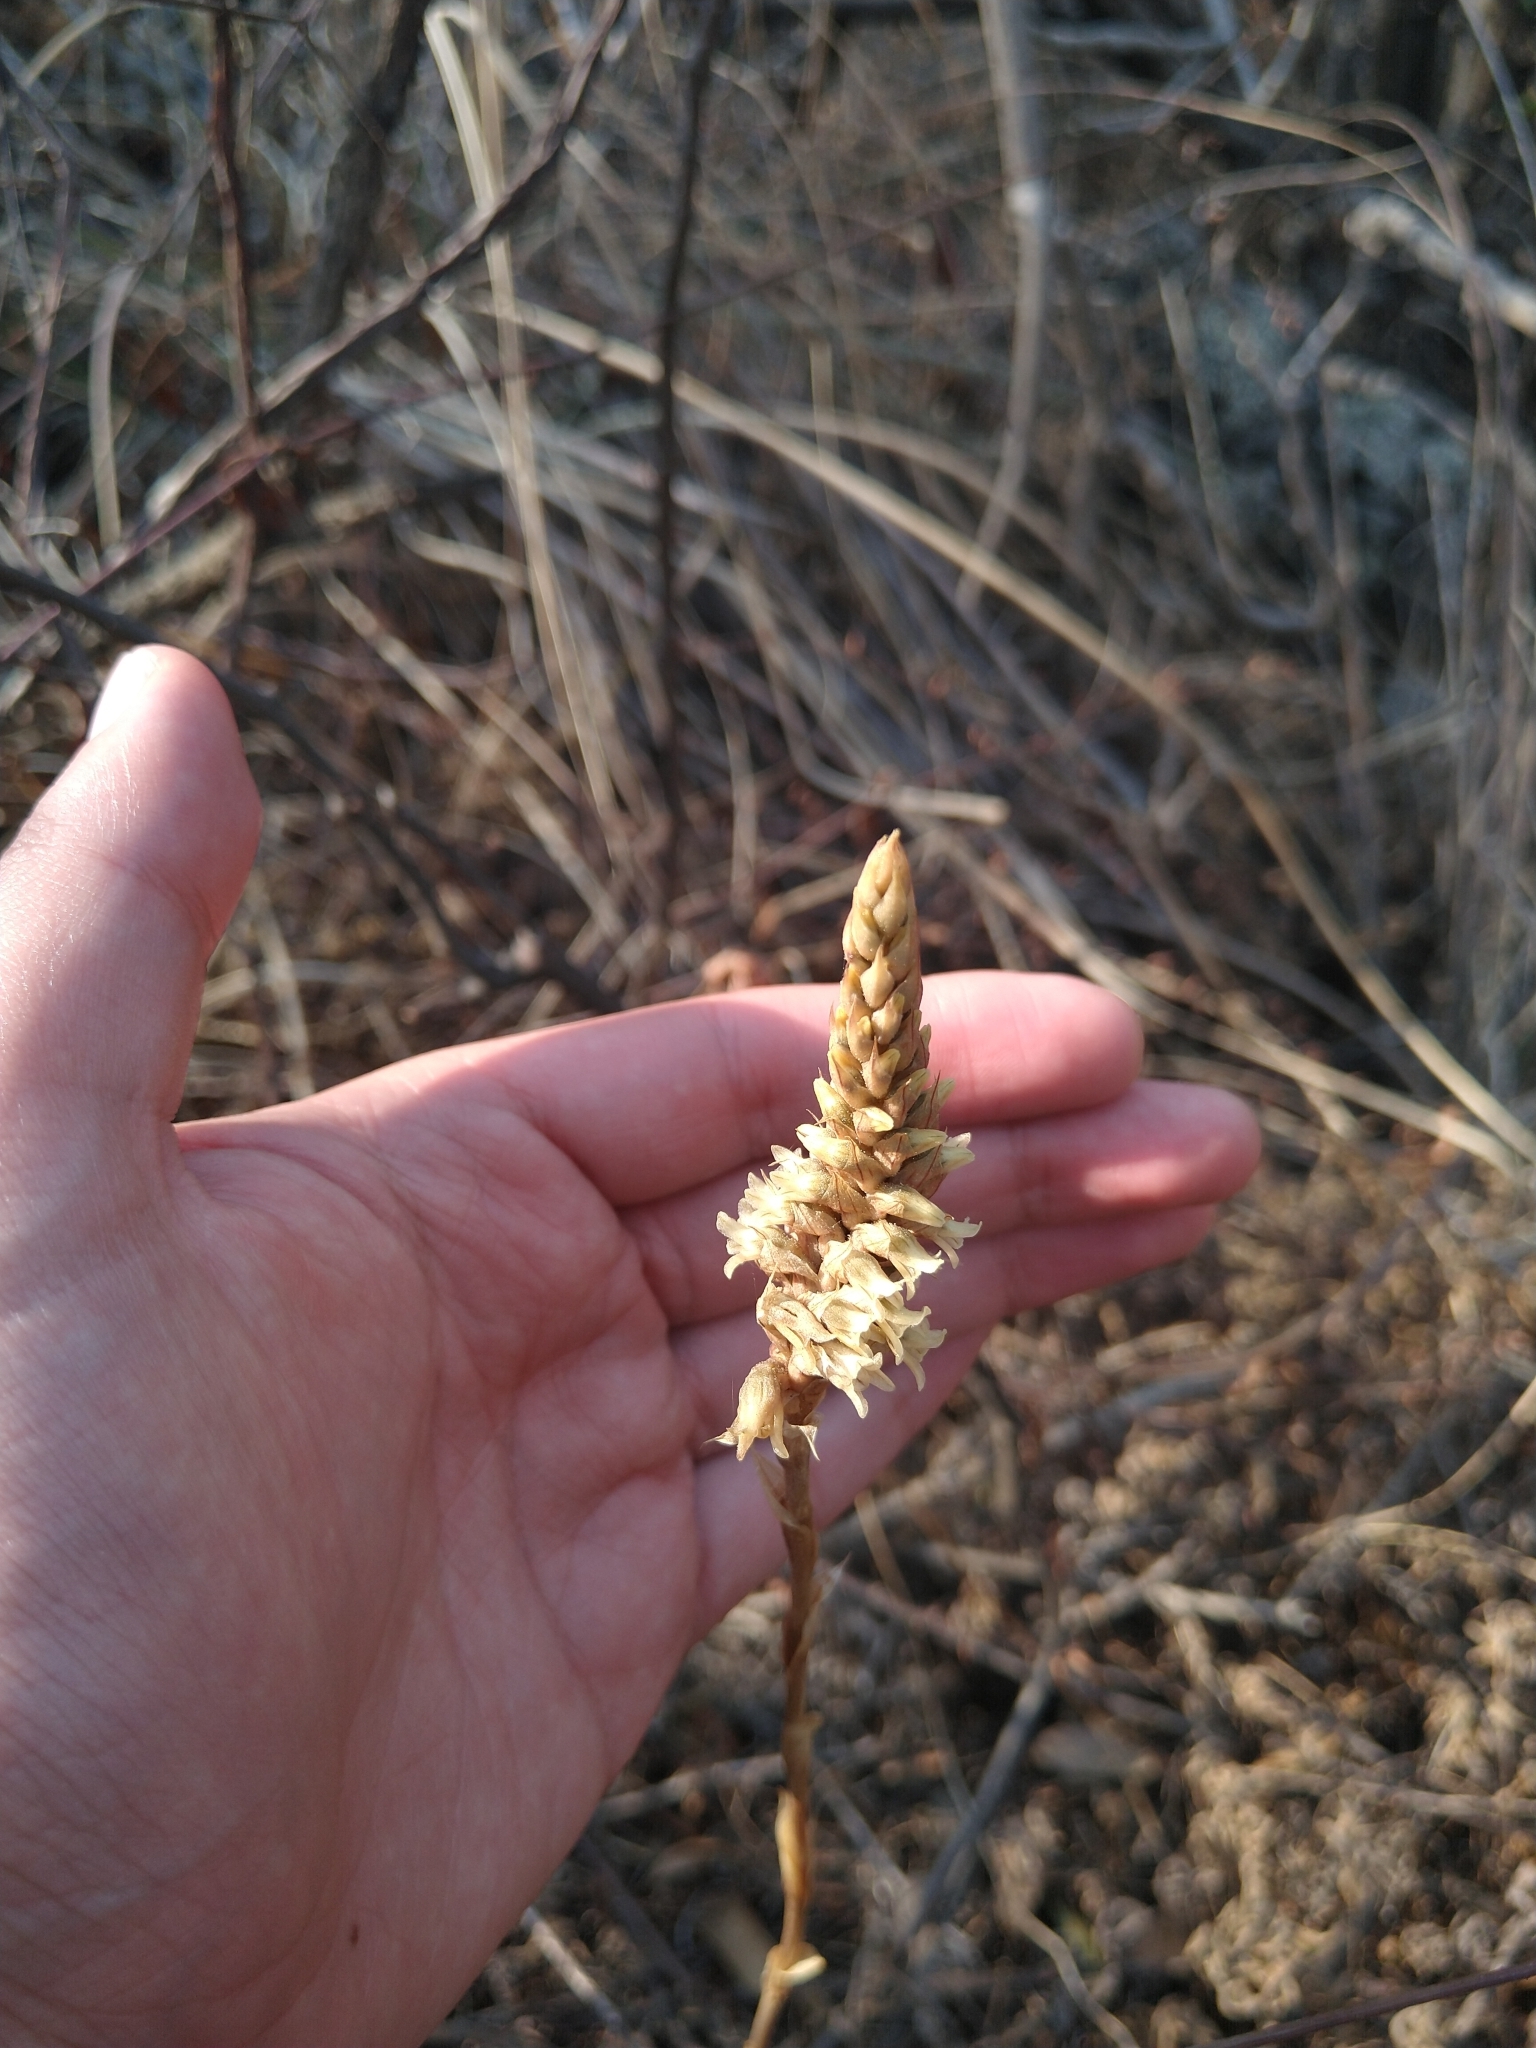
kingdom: Plantae
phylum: Tracheophyta
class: Liliopsida
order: Asparagales
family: Orchidaceae
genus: Aulosepalum
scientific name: Aulosepalum pyramidale
